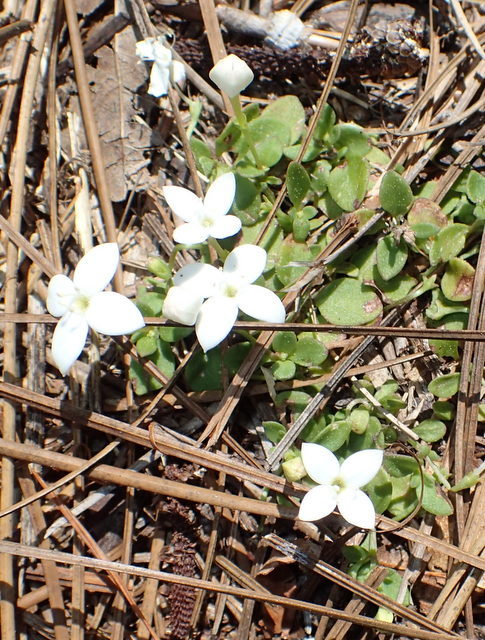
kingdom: Plantae
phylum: Tracheophyta
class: Magnoliopsida
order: Gentianales
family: Rubiaceae
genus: Houstonia
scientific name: Houstonia procumbens
